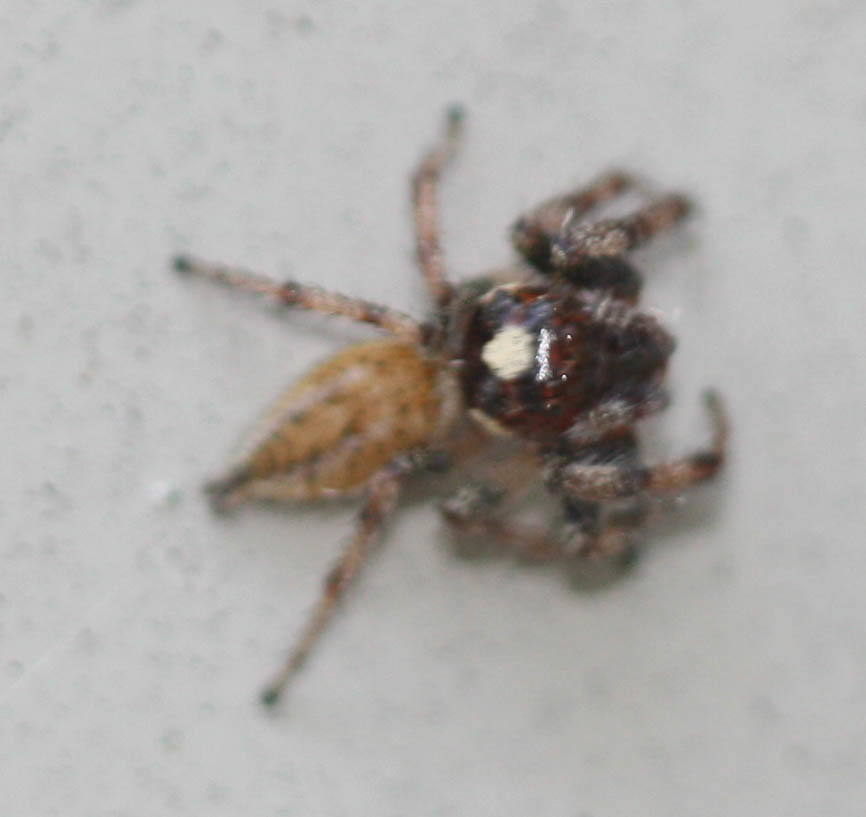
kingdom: Animalia
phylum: Arthropoda
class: Arachnida
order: Araneae
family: Salticidae
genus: Colonus
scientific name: Colonus hesperus
